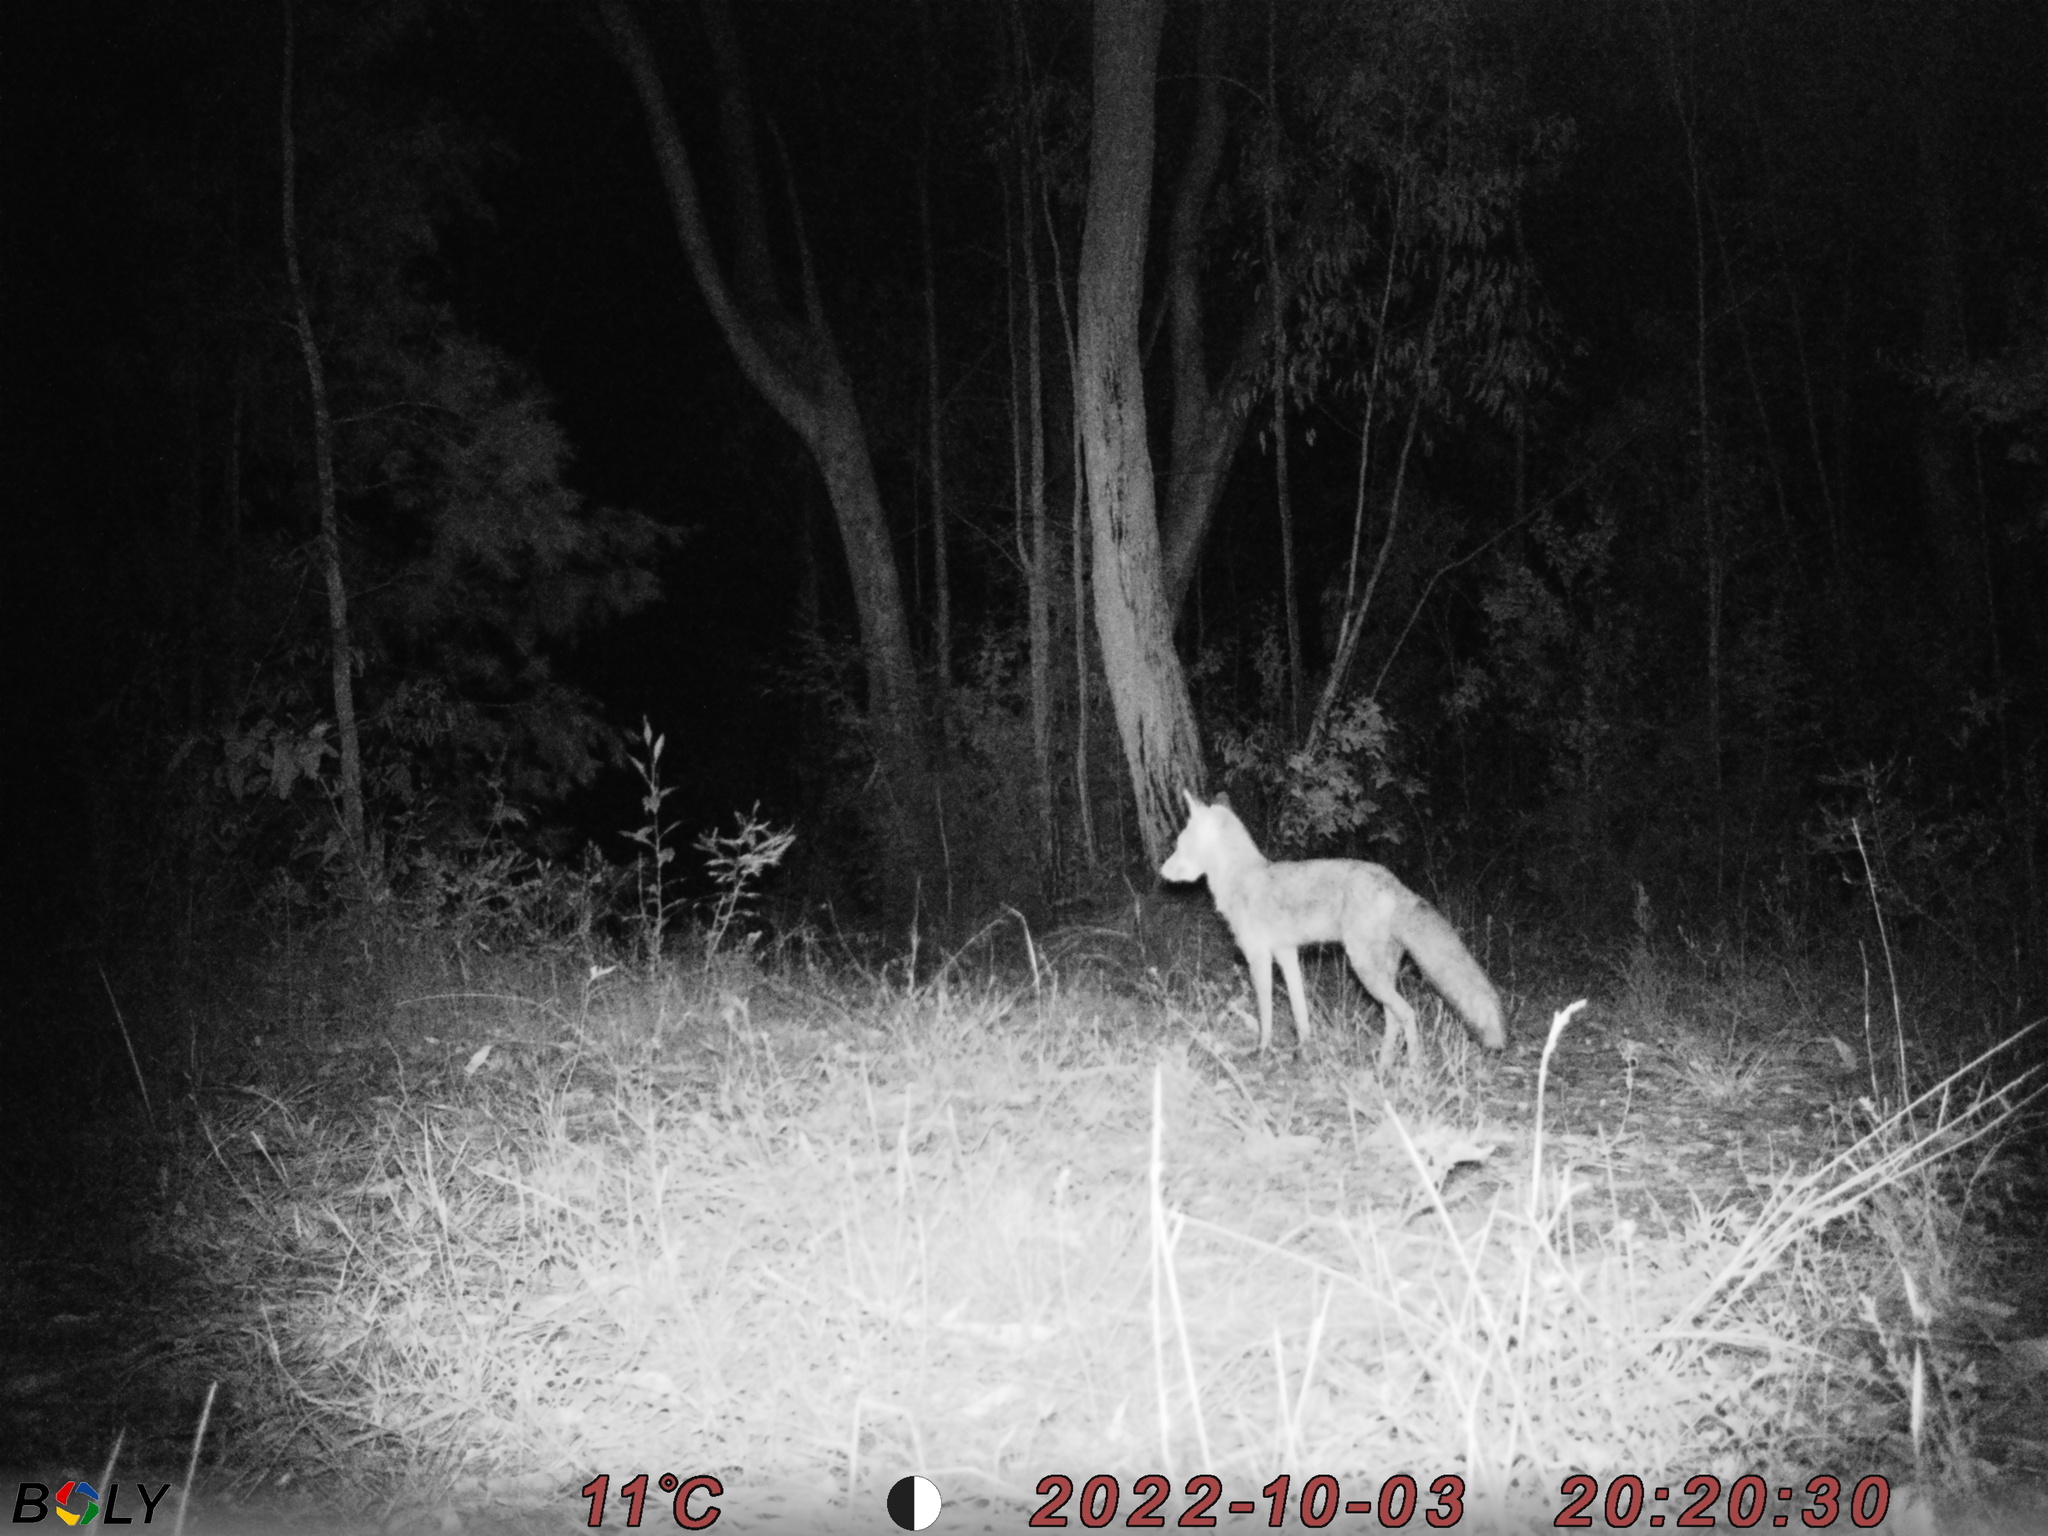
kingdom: Animalia
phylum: Chordata
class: Mammalia
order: Carnivora
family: Canidae
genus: Vulpes
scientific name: Vulpes vulpes
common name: Red fox
